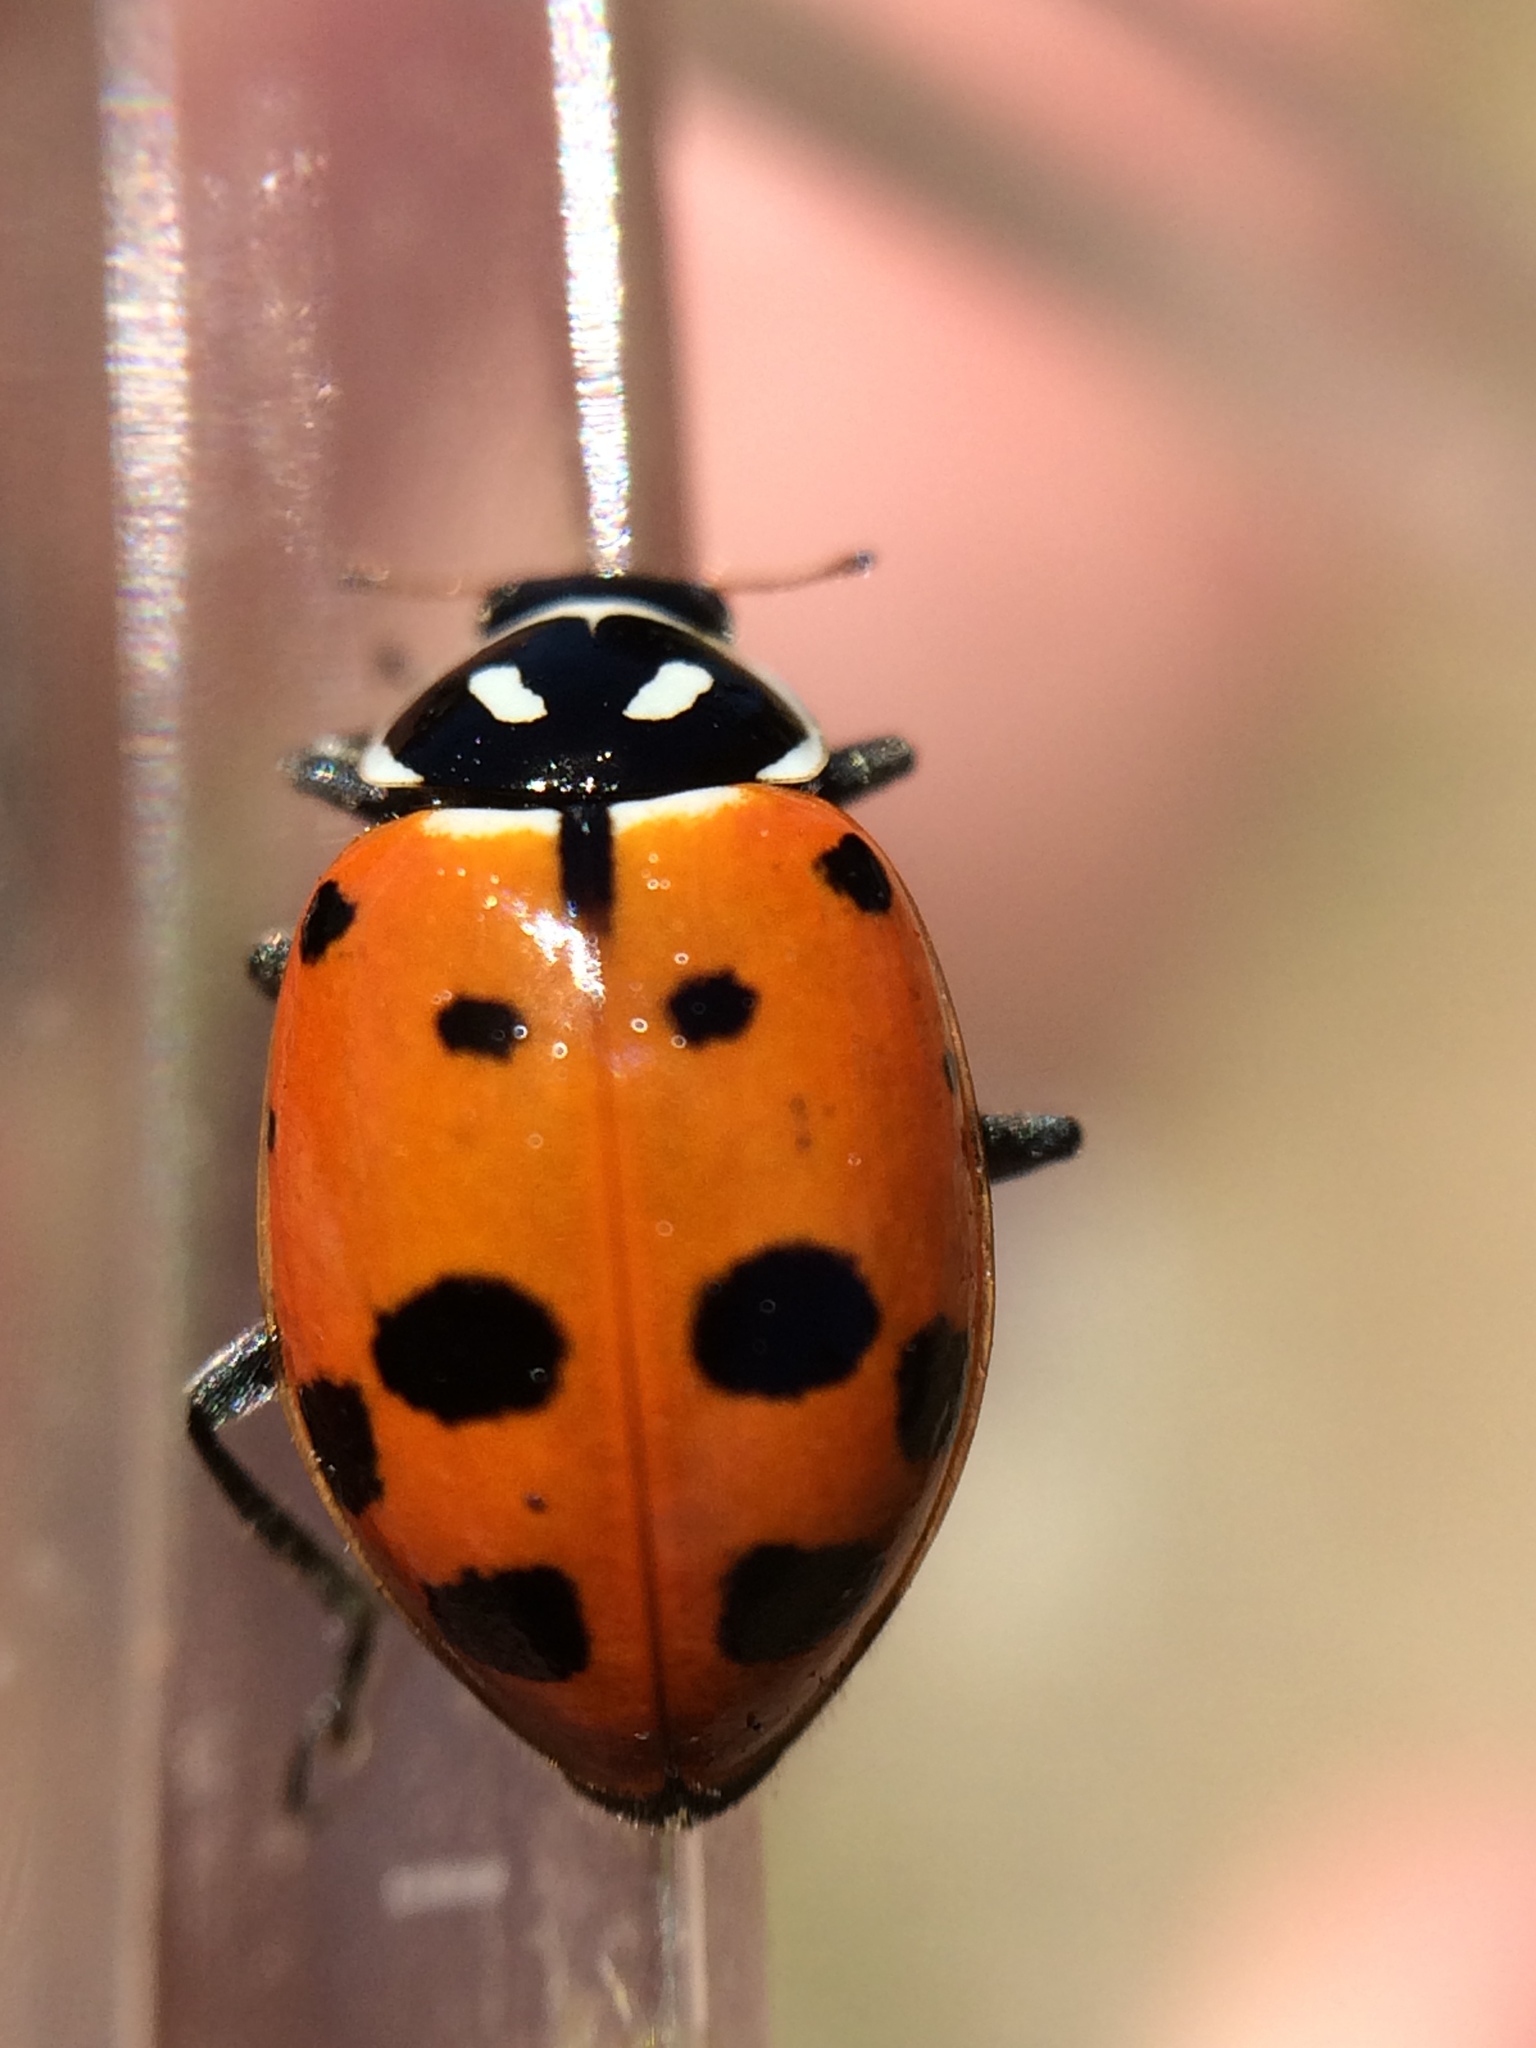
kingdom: Animalia
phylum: Arthropoda
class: Insecta
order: Coleoptera
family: Coccinellidae
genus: Hippodamia
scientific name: Hippodamia convergens
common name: Convergent lady beetle
